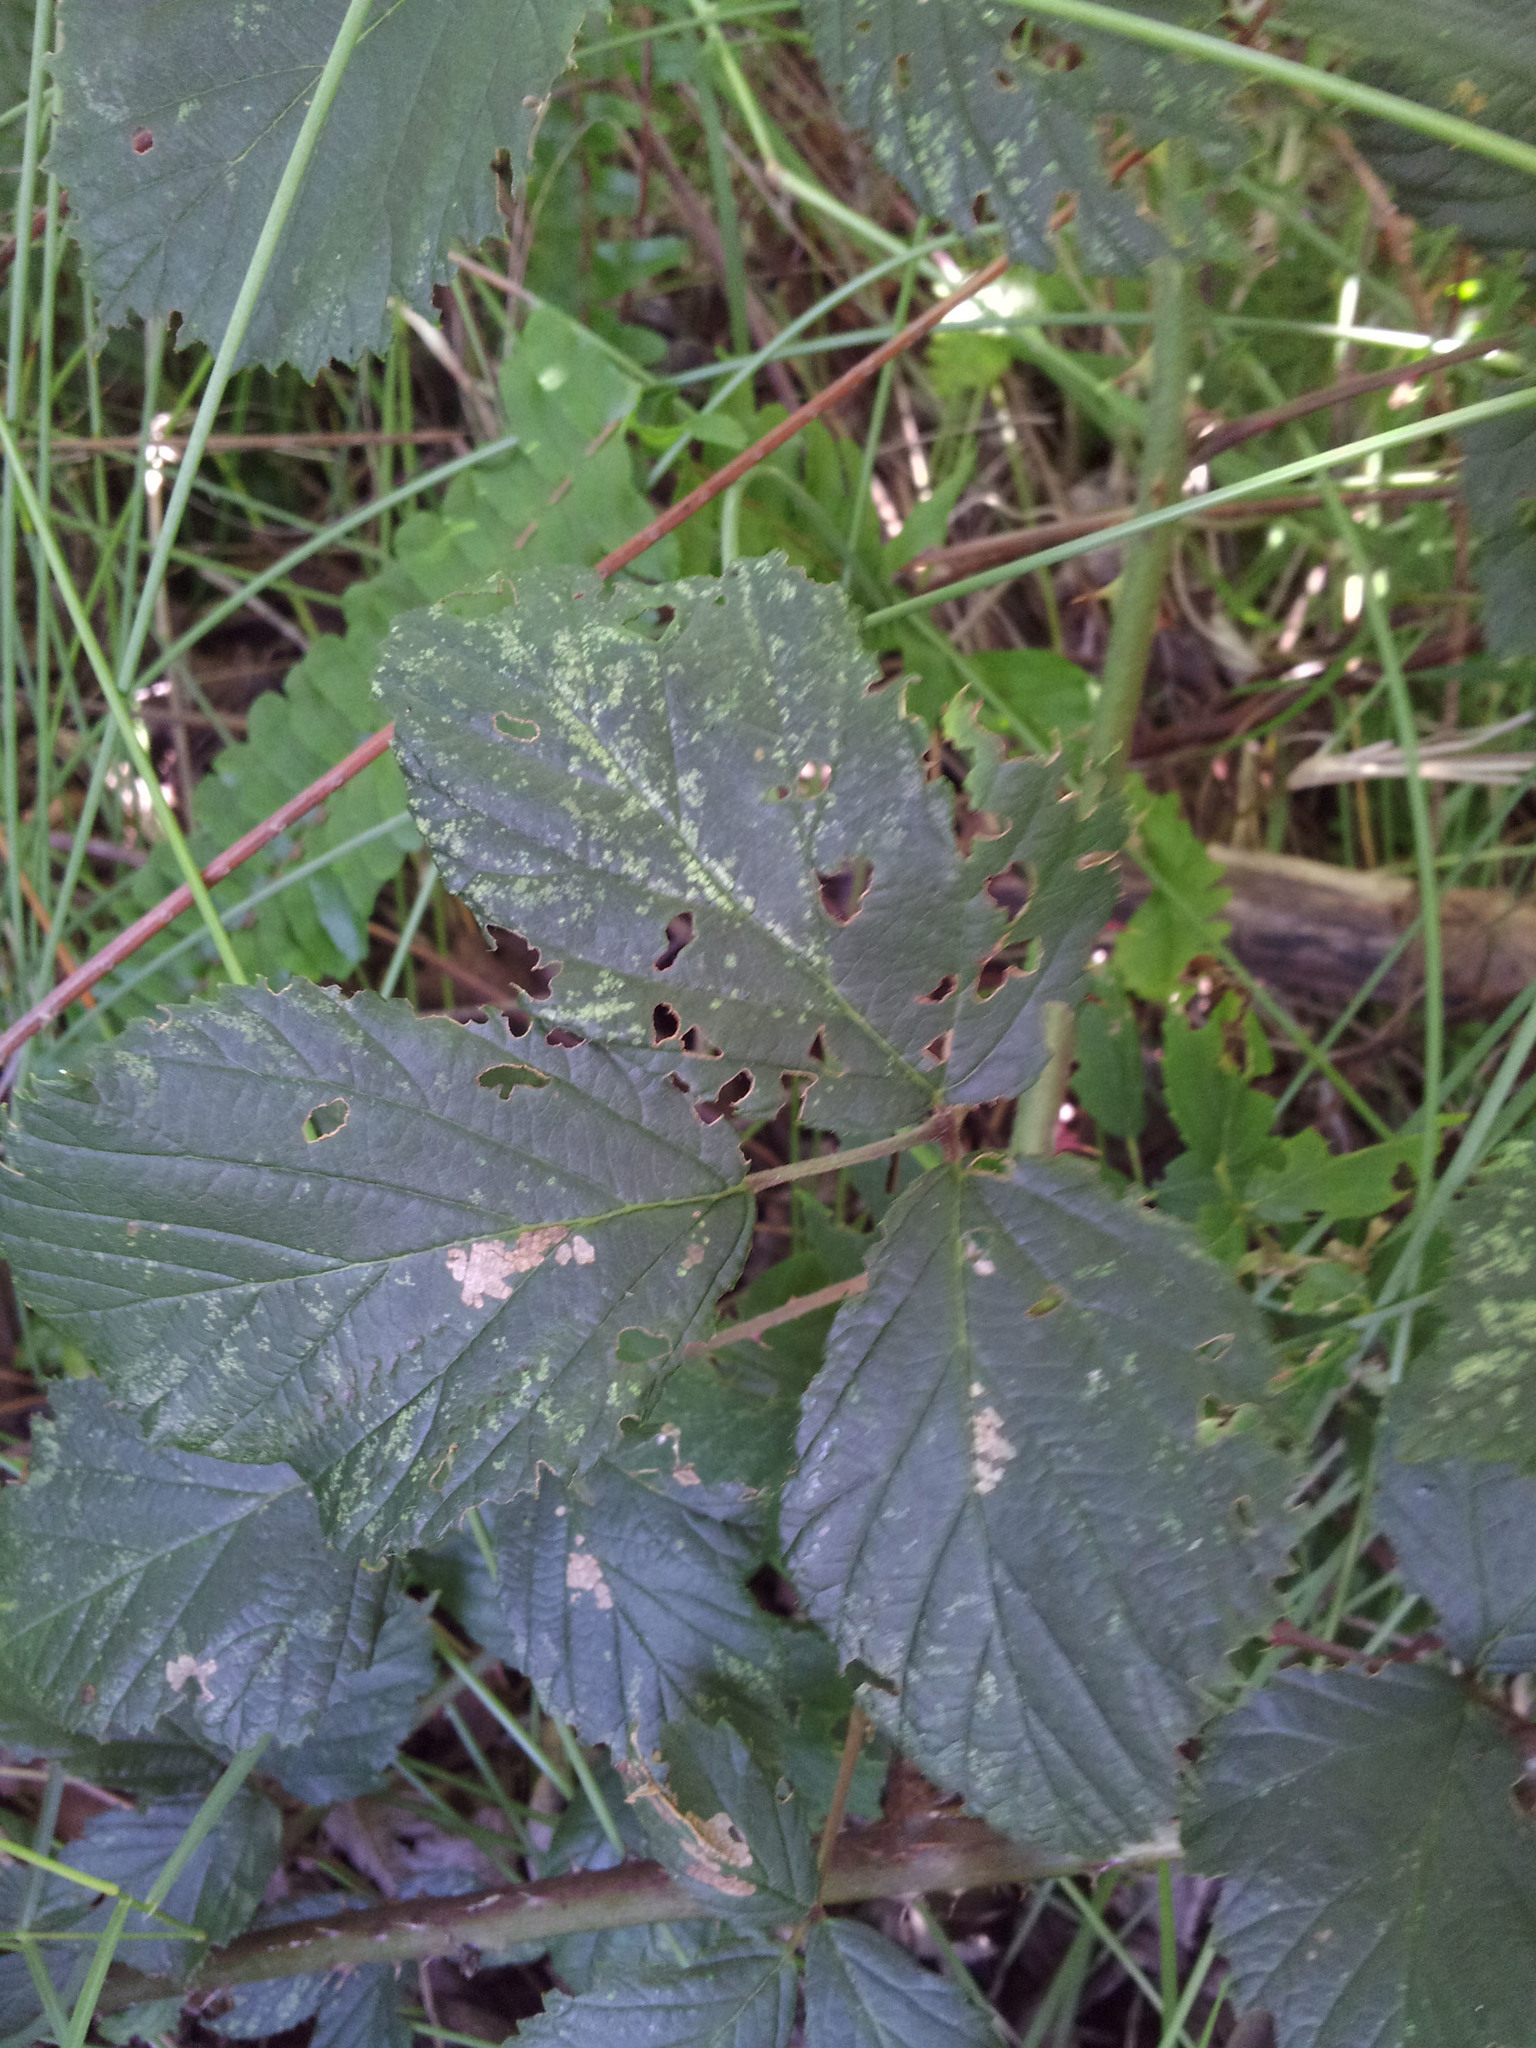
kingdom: Plantae
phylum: Tracheophyta
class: Magnoliopsida
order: Rosales
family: Rosaceae
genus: Rubus
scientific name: Rubus
